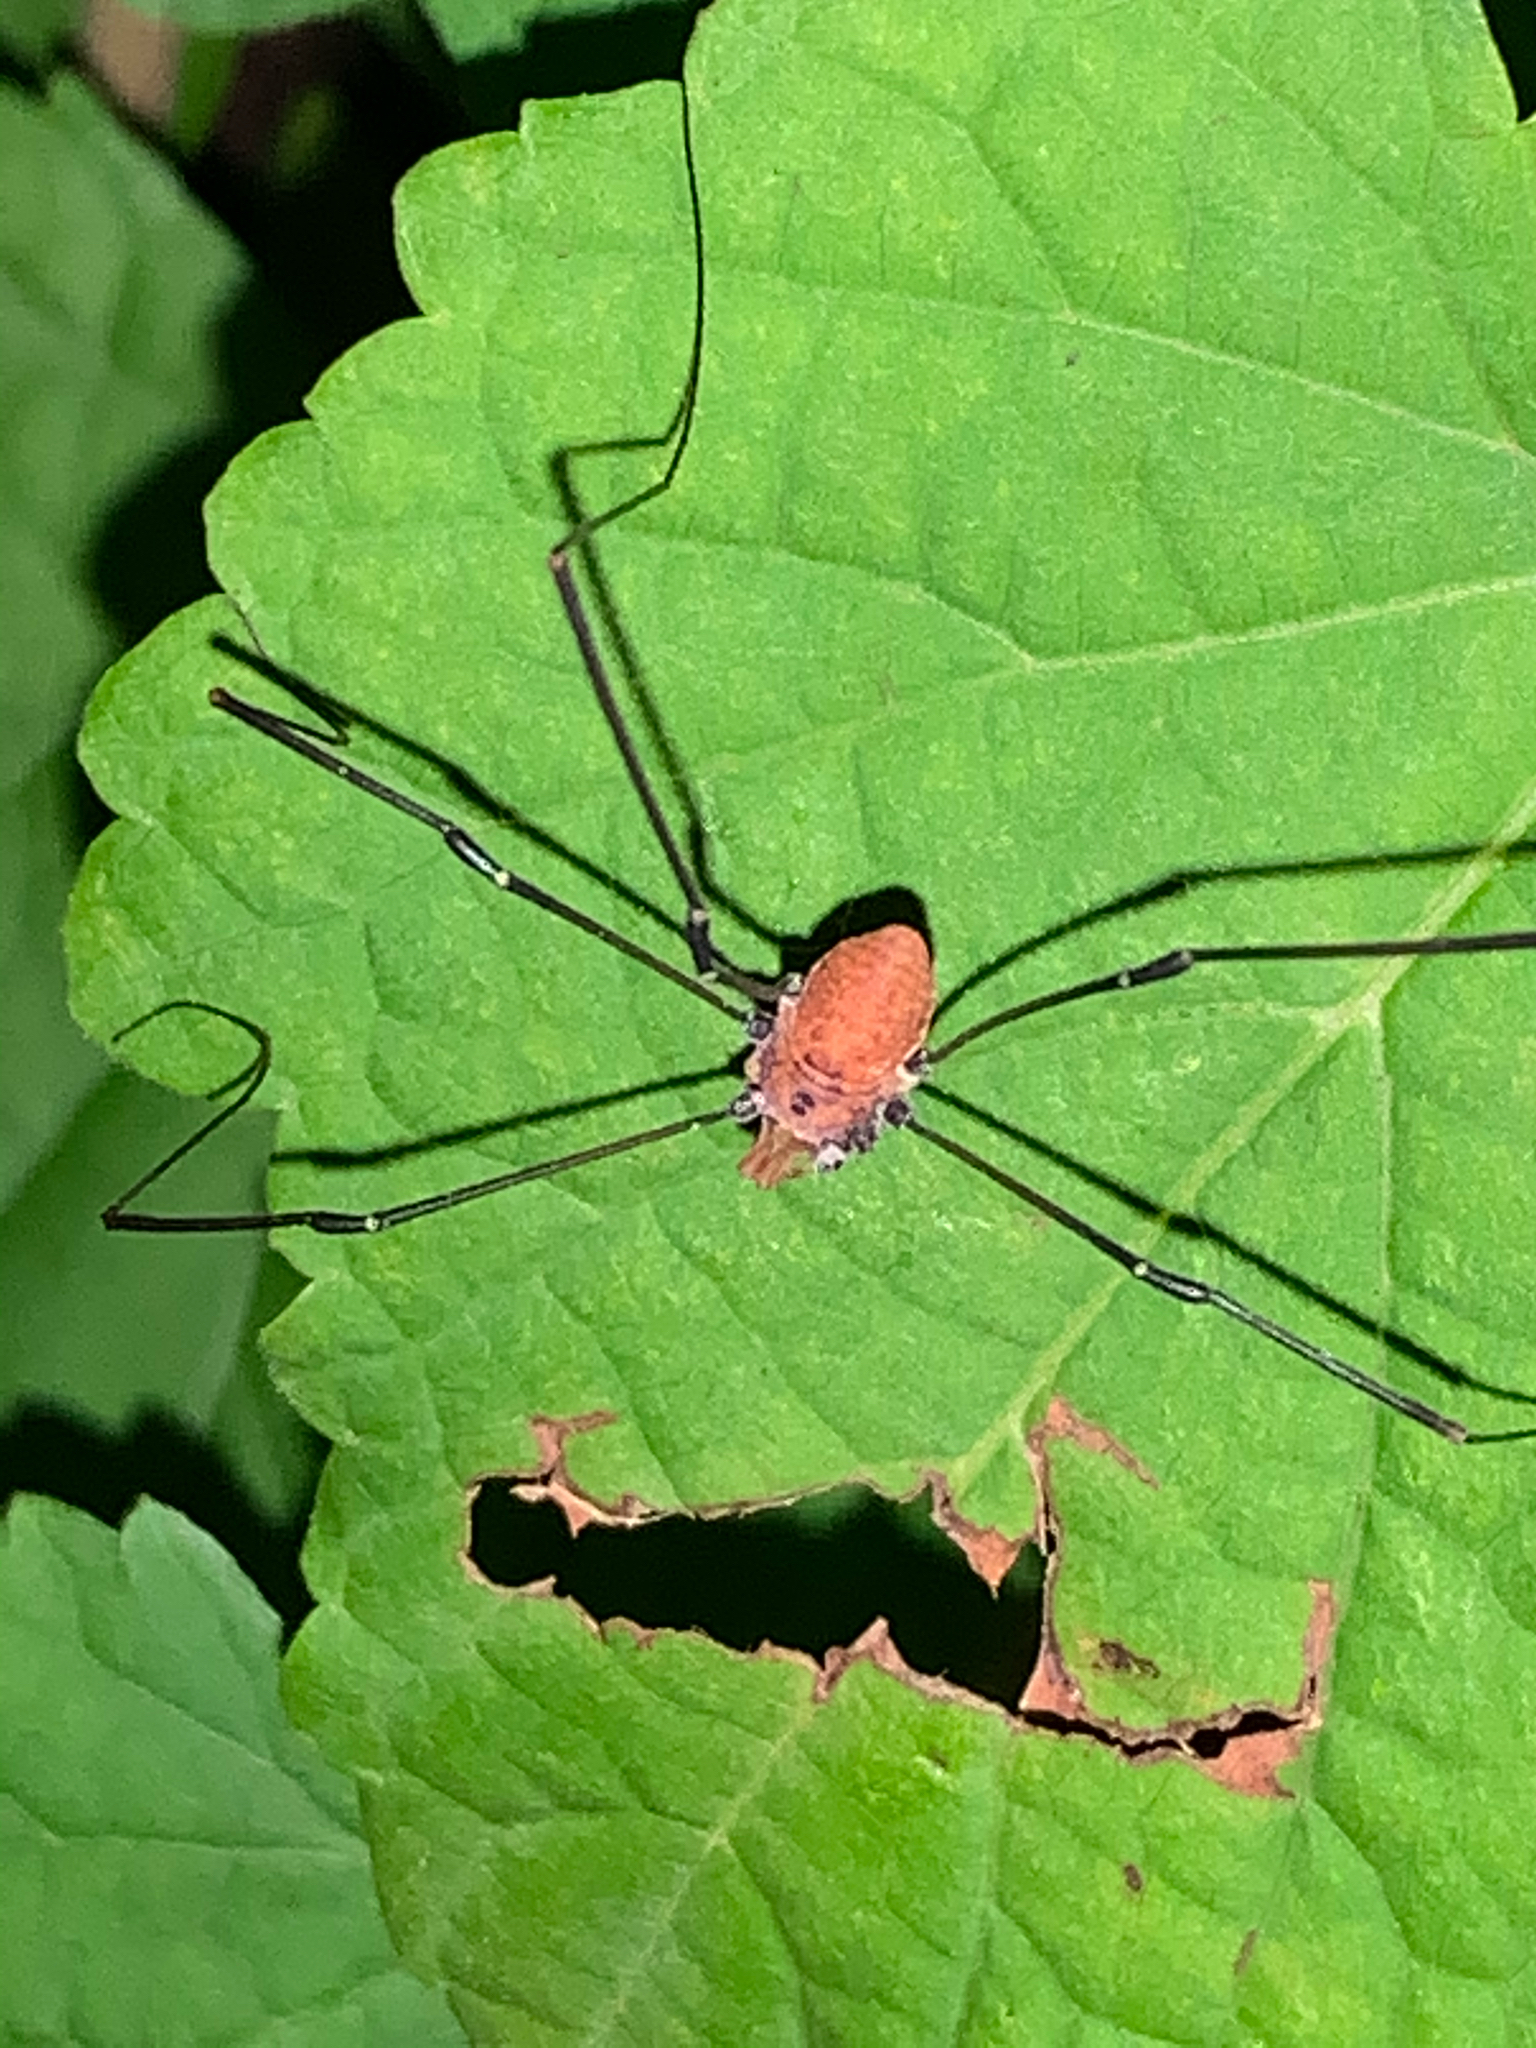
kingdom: Animalia
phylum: Arthropoda
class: Arachnida
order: Opiliones
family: Sclerosomatidae
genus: Leiobunum
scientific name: Leiobunum vittatum
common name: Eastern harvestman
